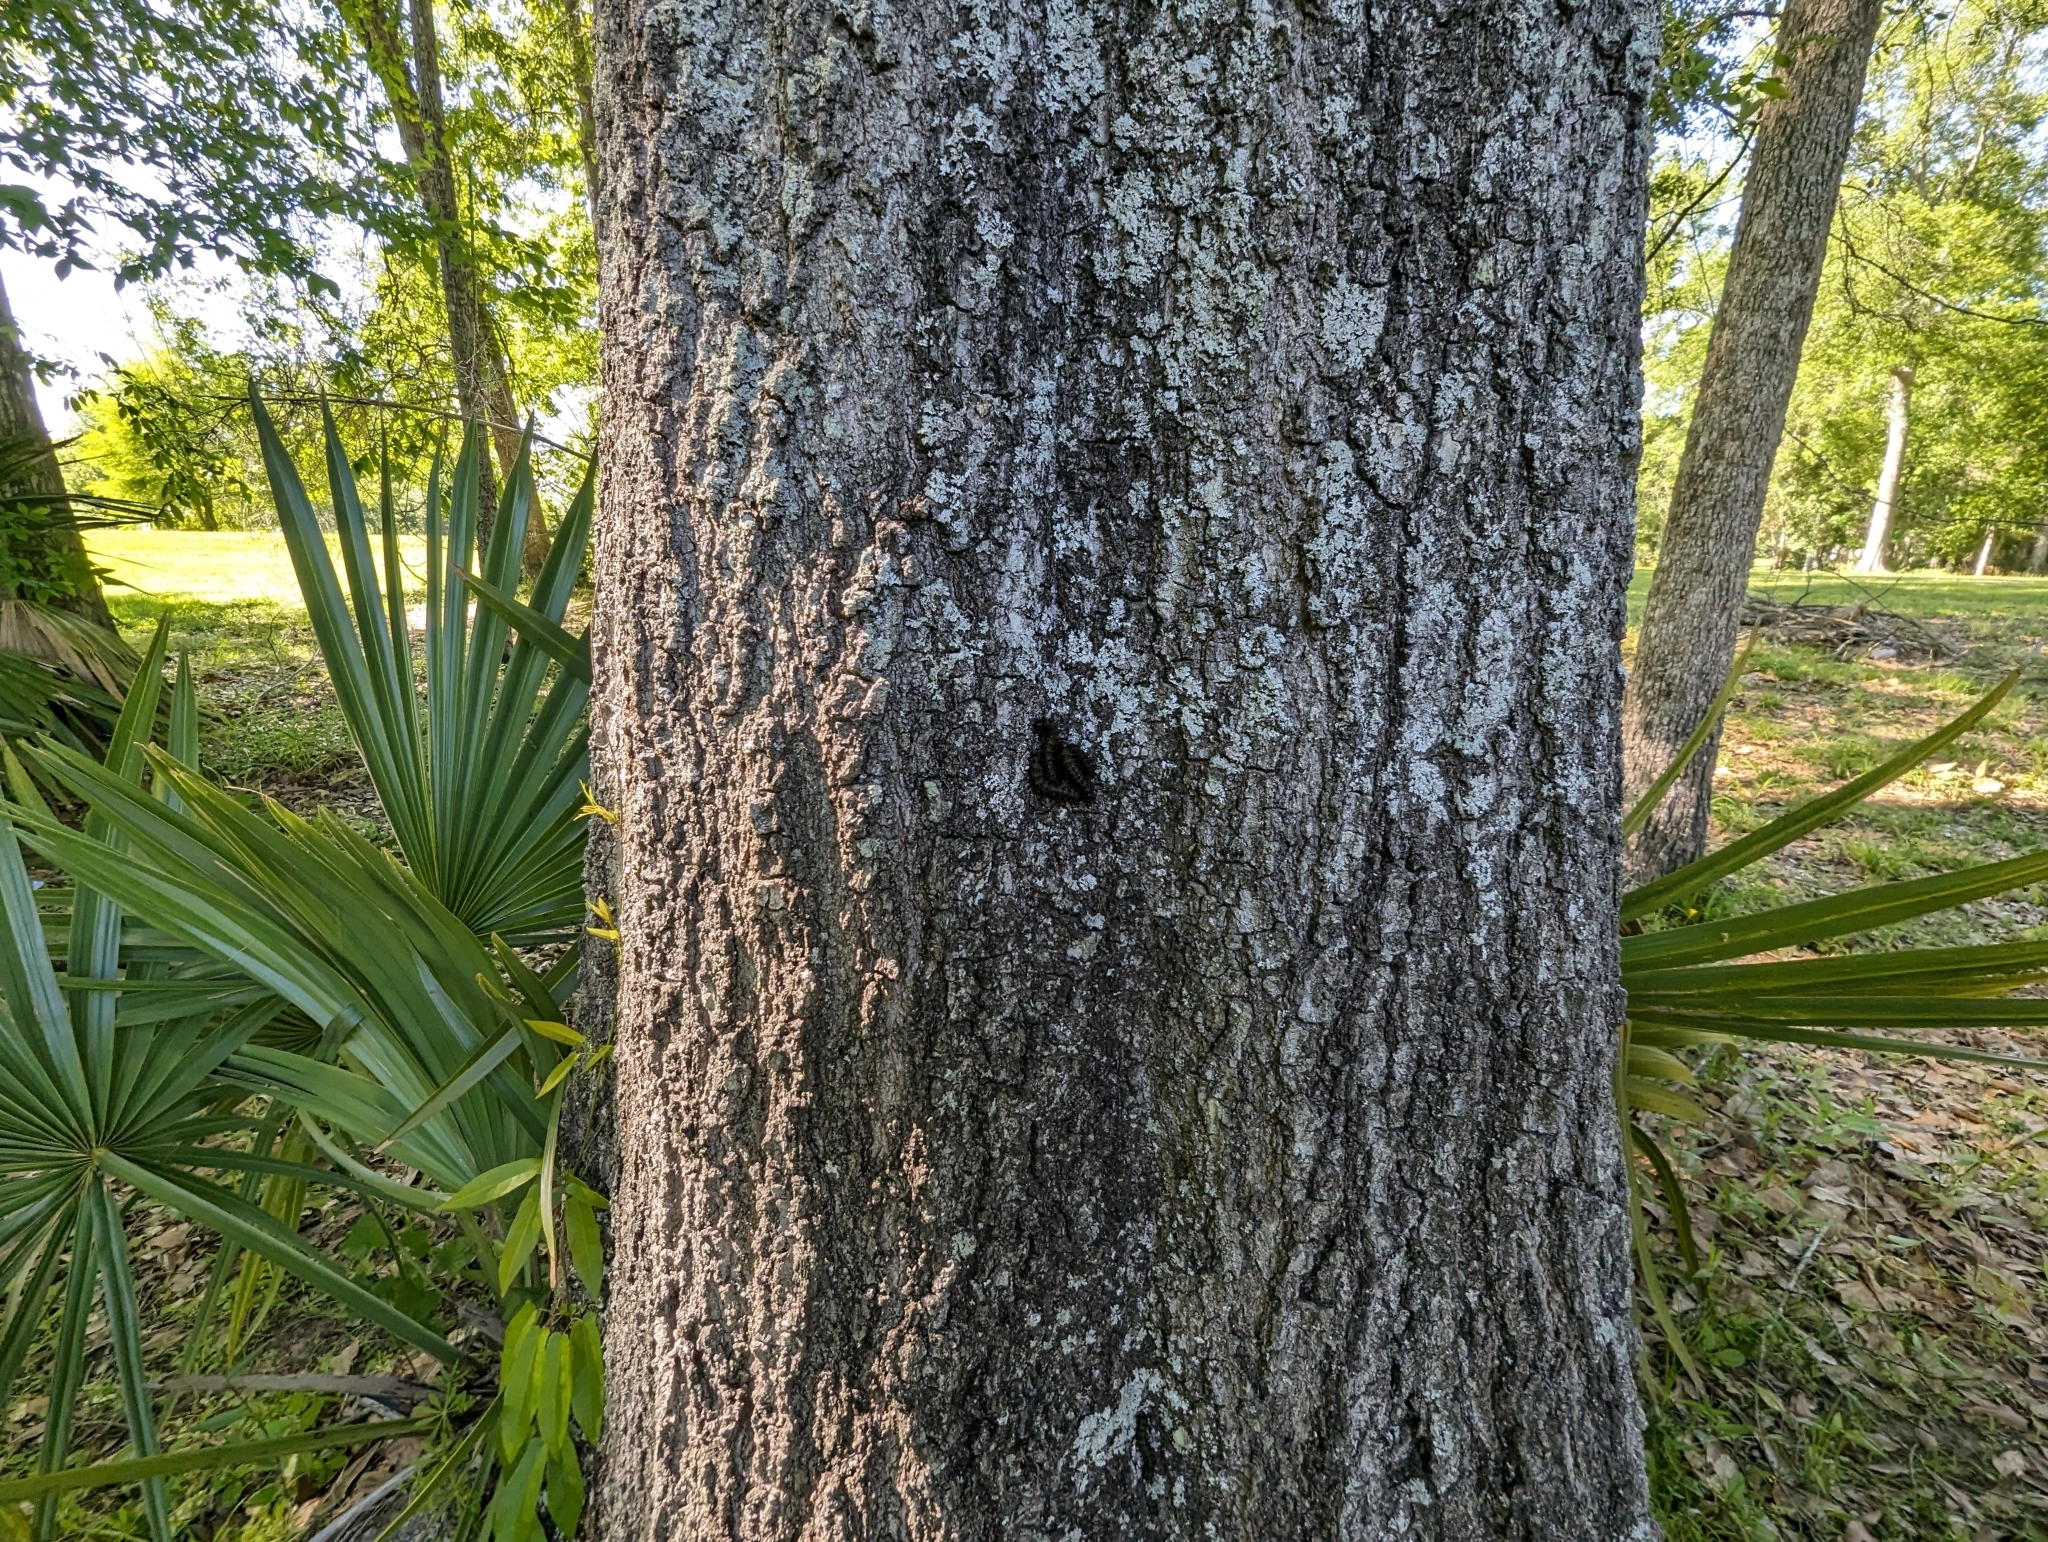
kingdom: Animalia
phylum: Arthropoda
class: Insecta
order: Lepidoptera
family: Saturniidae
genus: Hemileuca
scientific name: Hemileuca maia
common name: Eastern buckmoth
